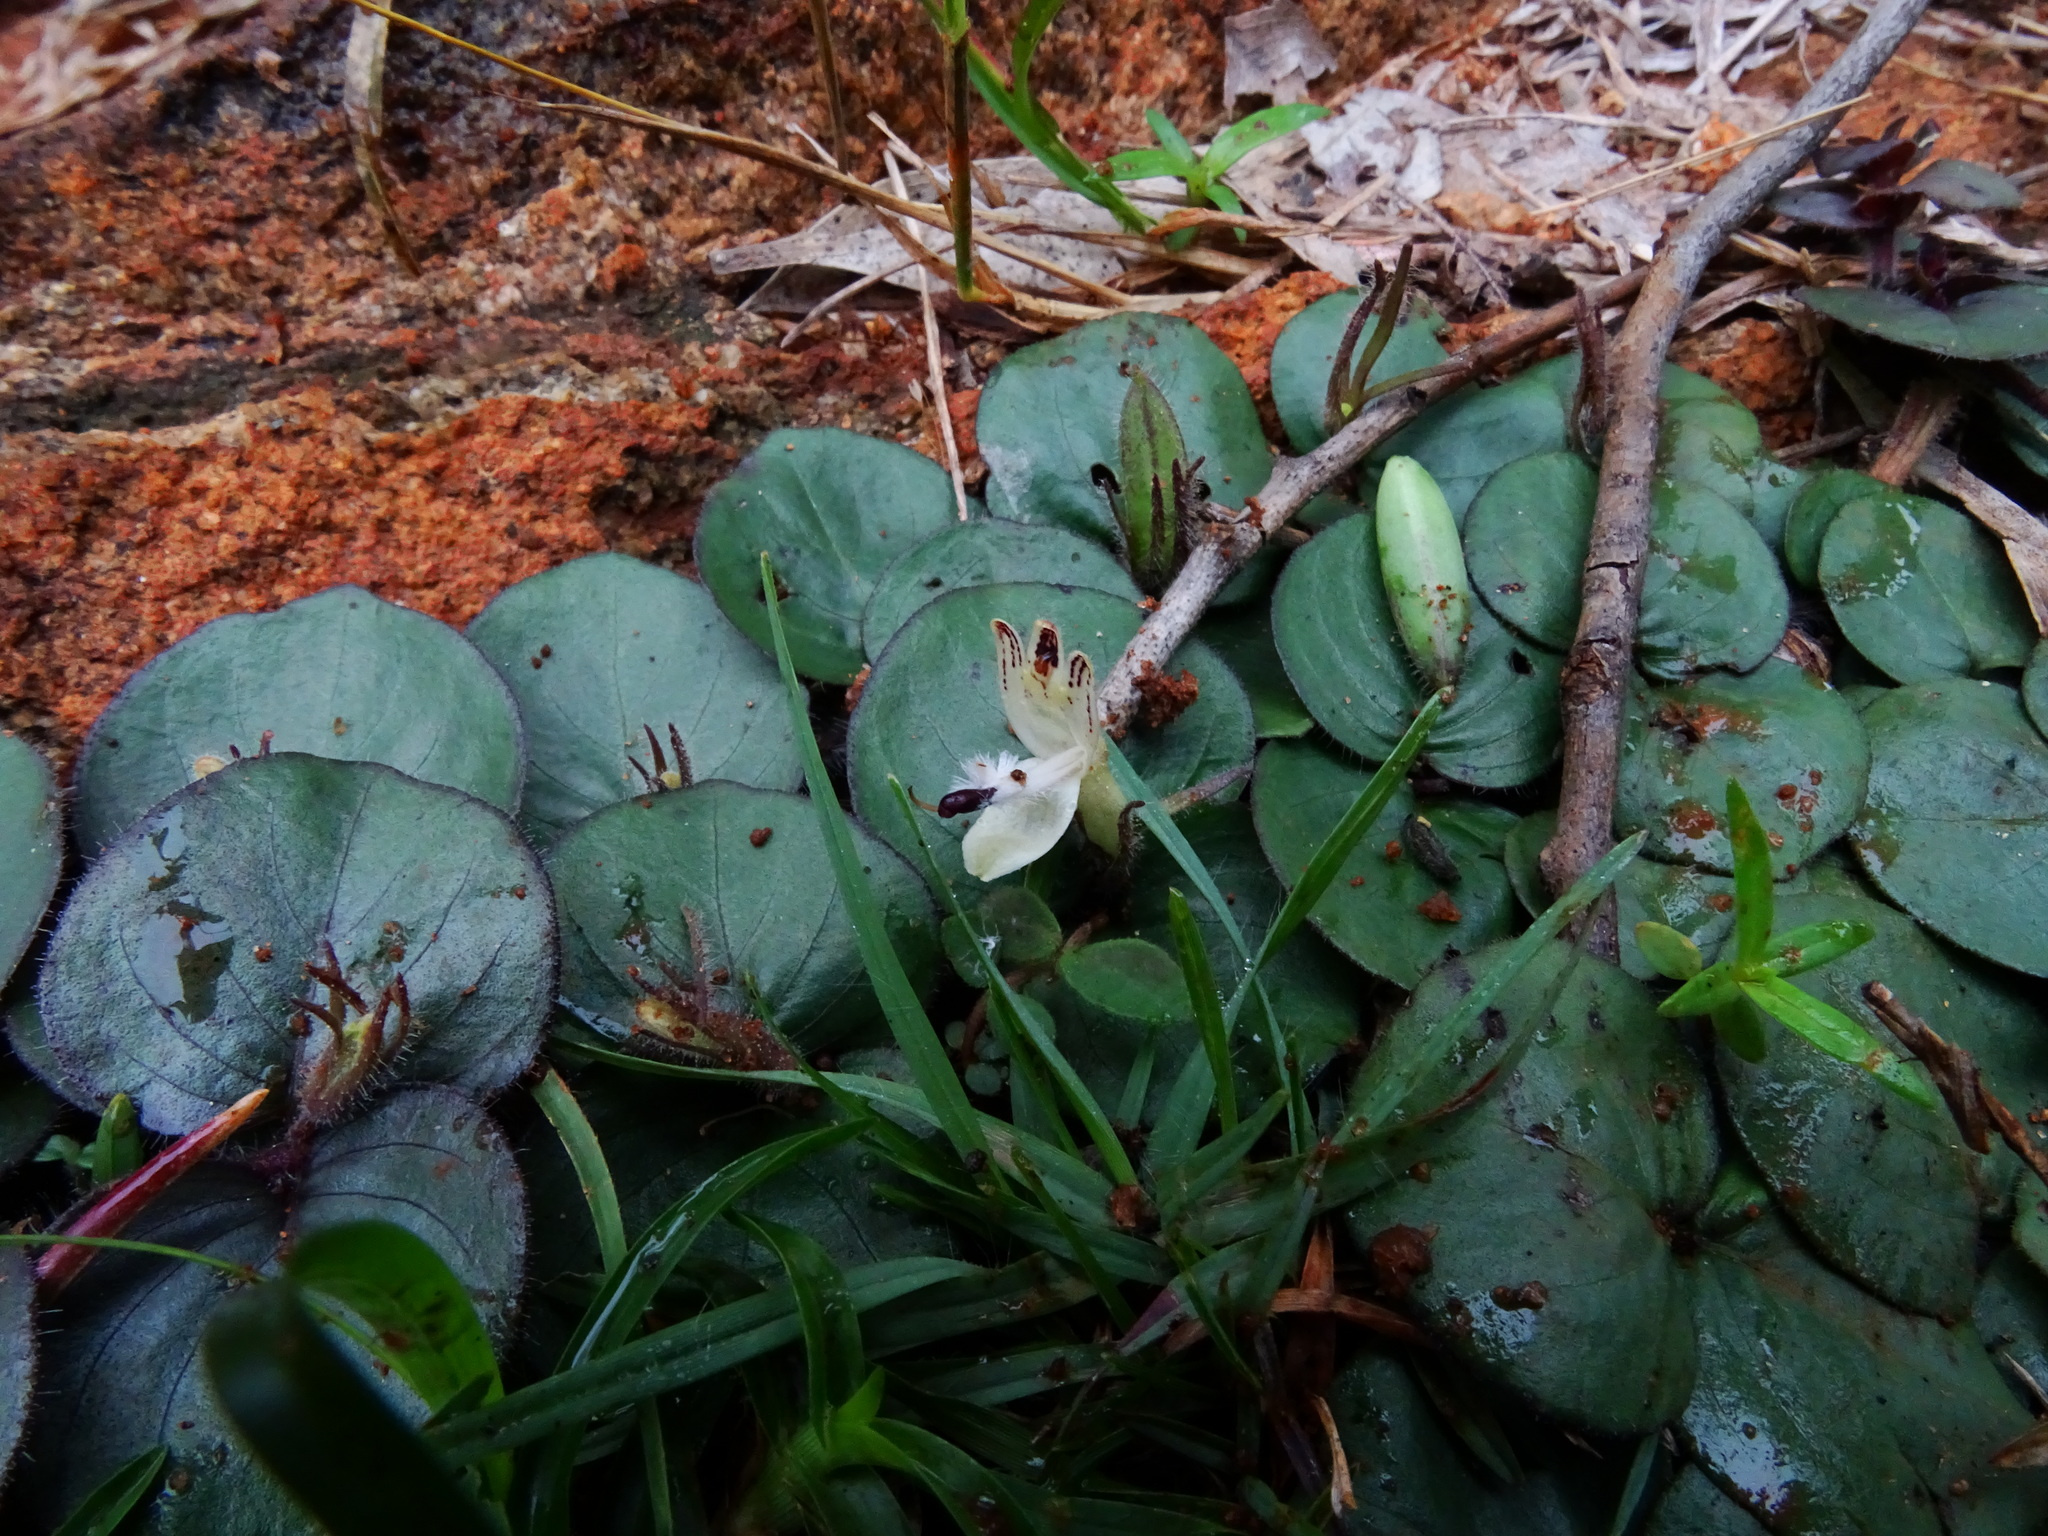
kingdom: Plantae
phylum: Tracheophyta
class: Magnoliopsida
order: Lamiales
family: Acanthaceae
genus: Andrographis
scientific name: Andrographis serpyllifolia
